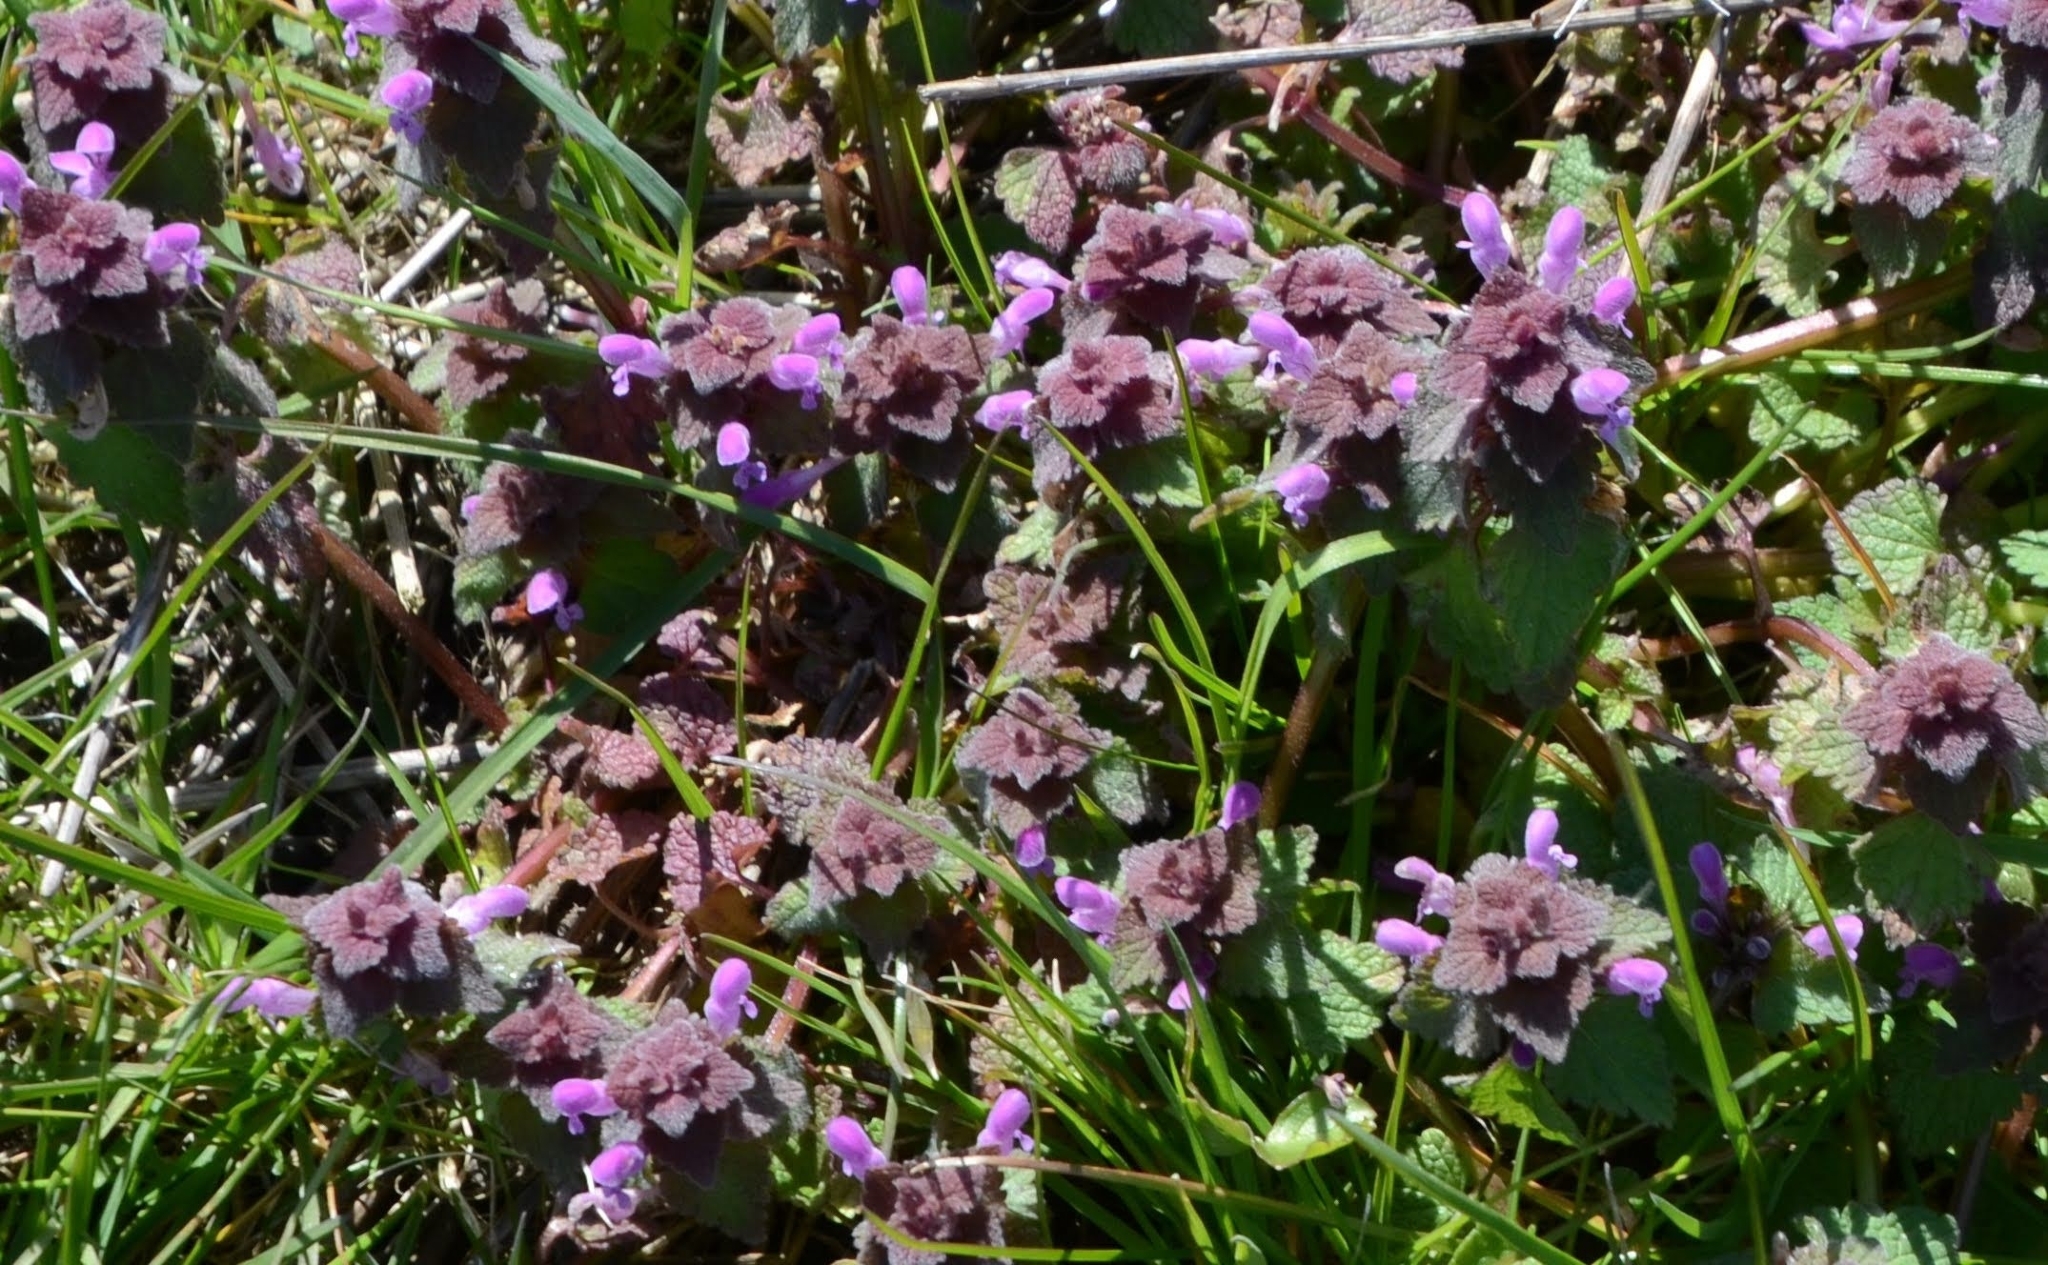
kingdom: Plantae
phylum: Tracheophyta
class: Magnoliopsida
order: Lamiales
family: Lamiaceae
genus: Lamium
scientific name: Lamium purpureum
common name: Red dead-nettle
